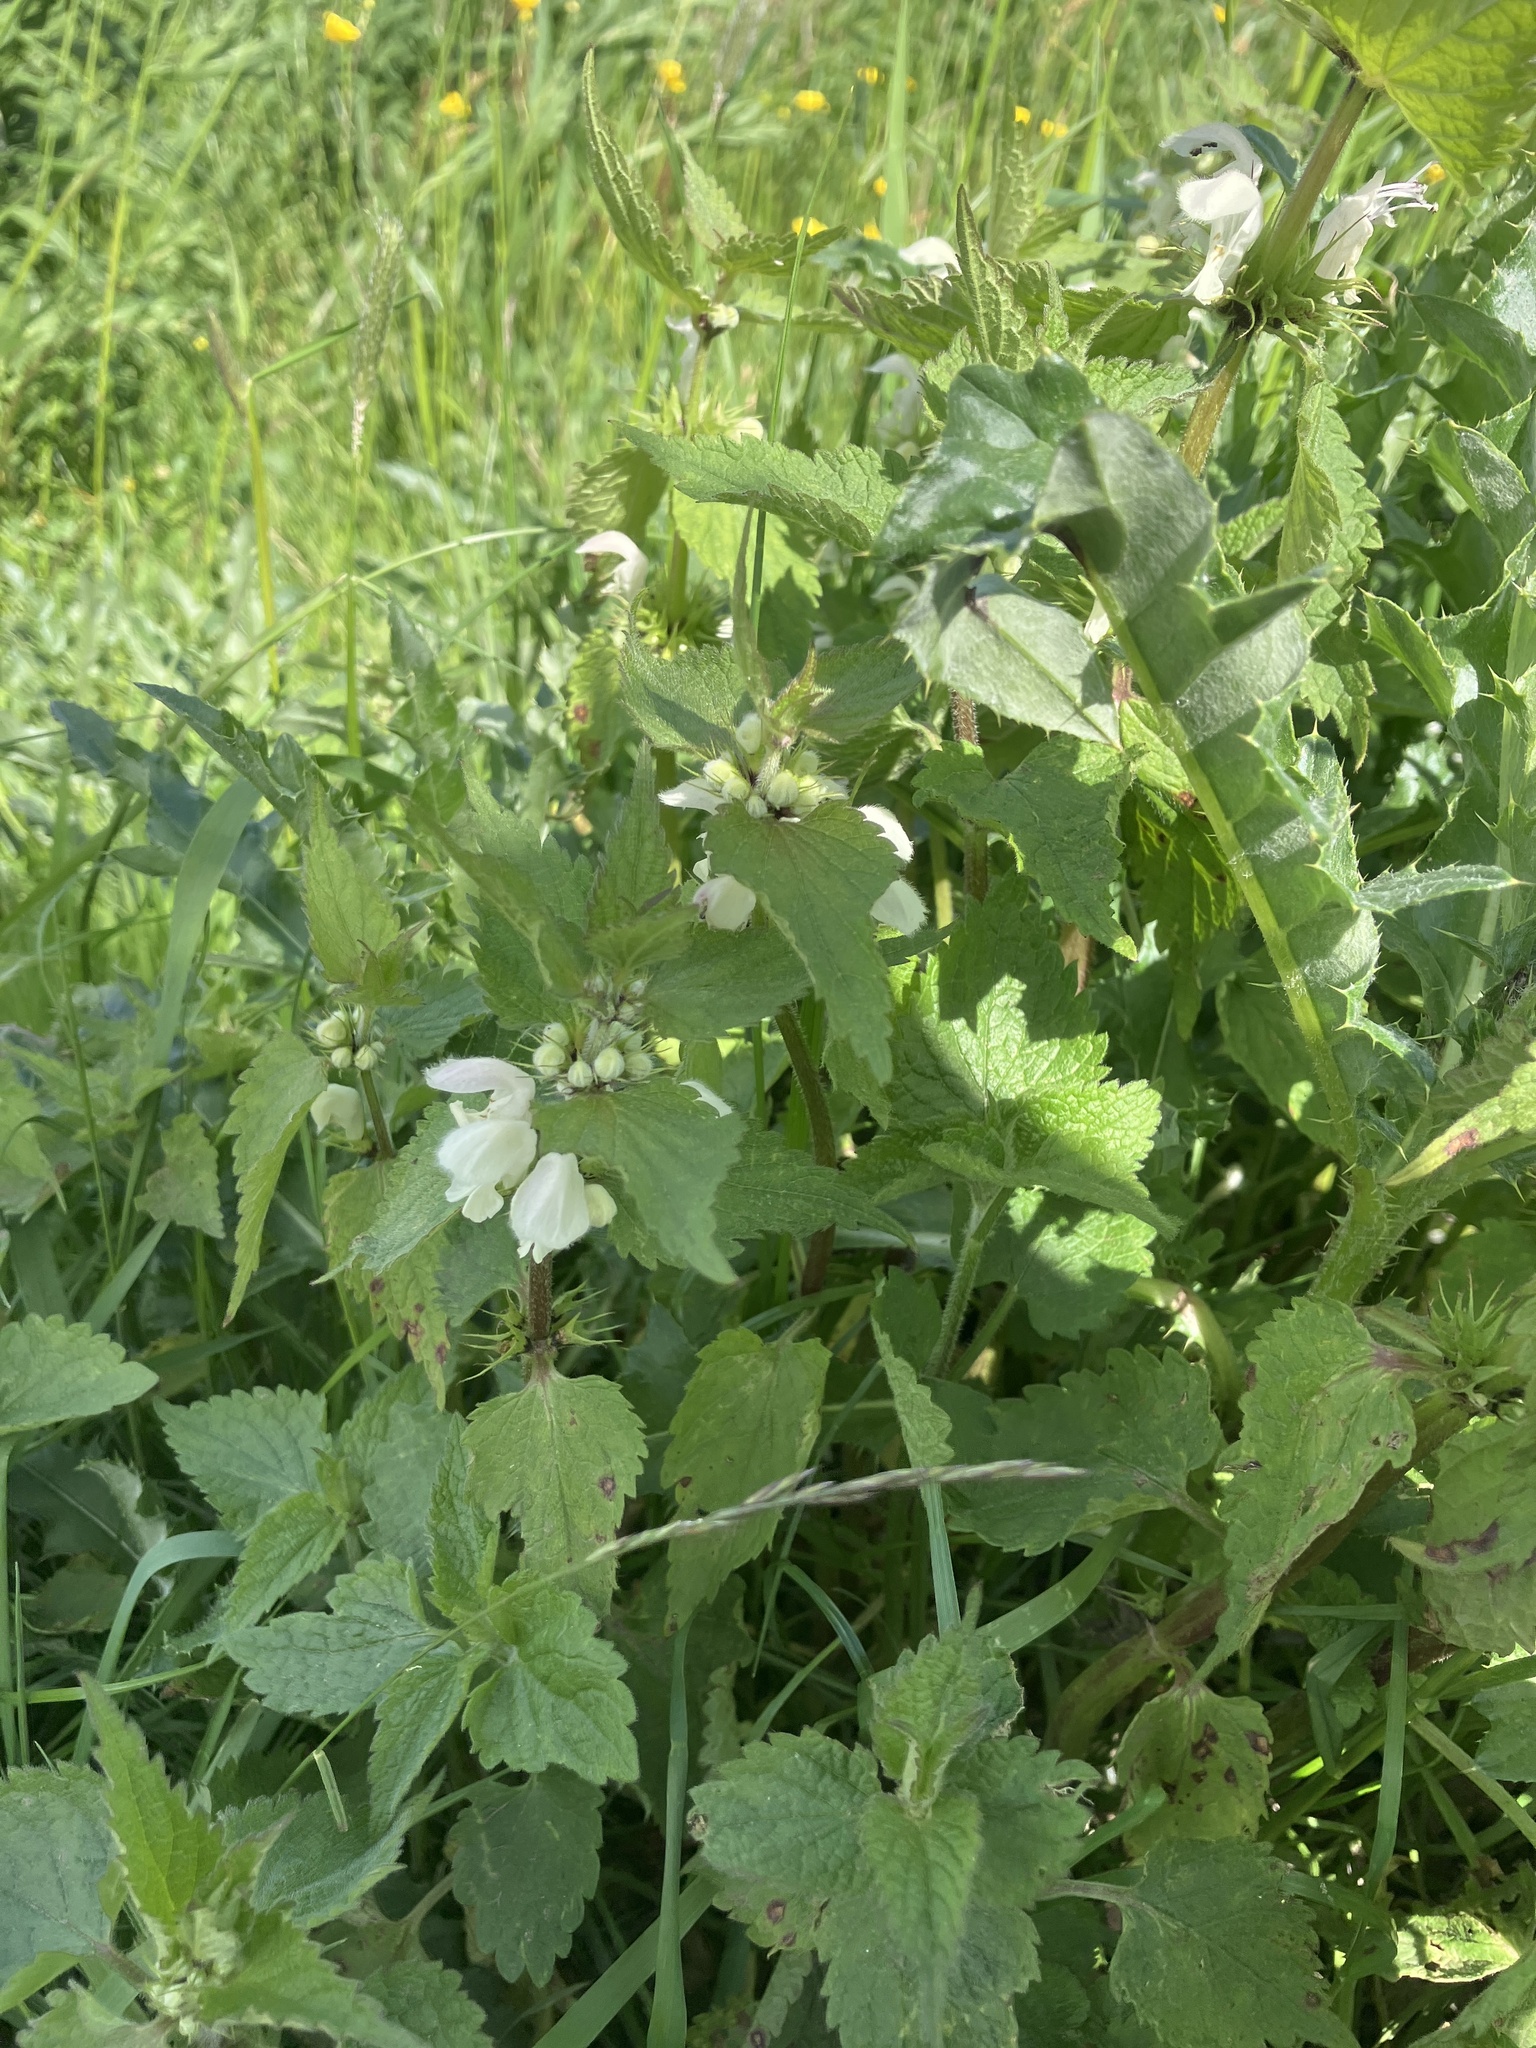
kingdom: Plantae
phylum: Tracheophyta
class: Magnoliopsida
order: Lamiales
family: Lamiaceae
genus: Lamium
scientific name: Lamium album
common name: White dead-nettle
